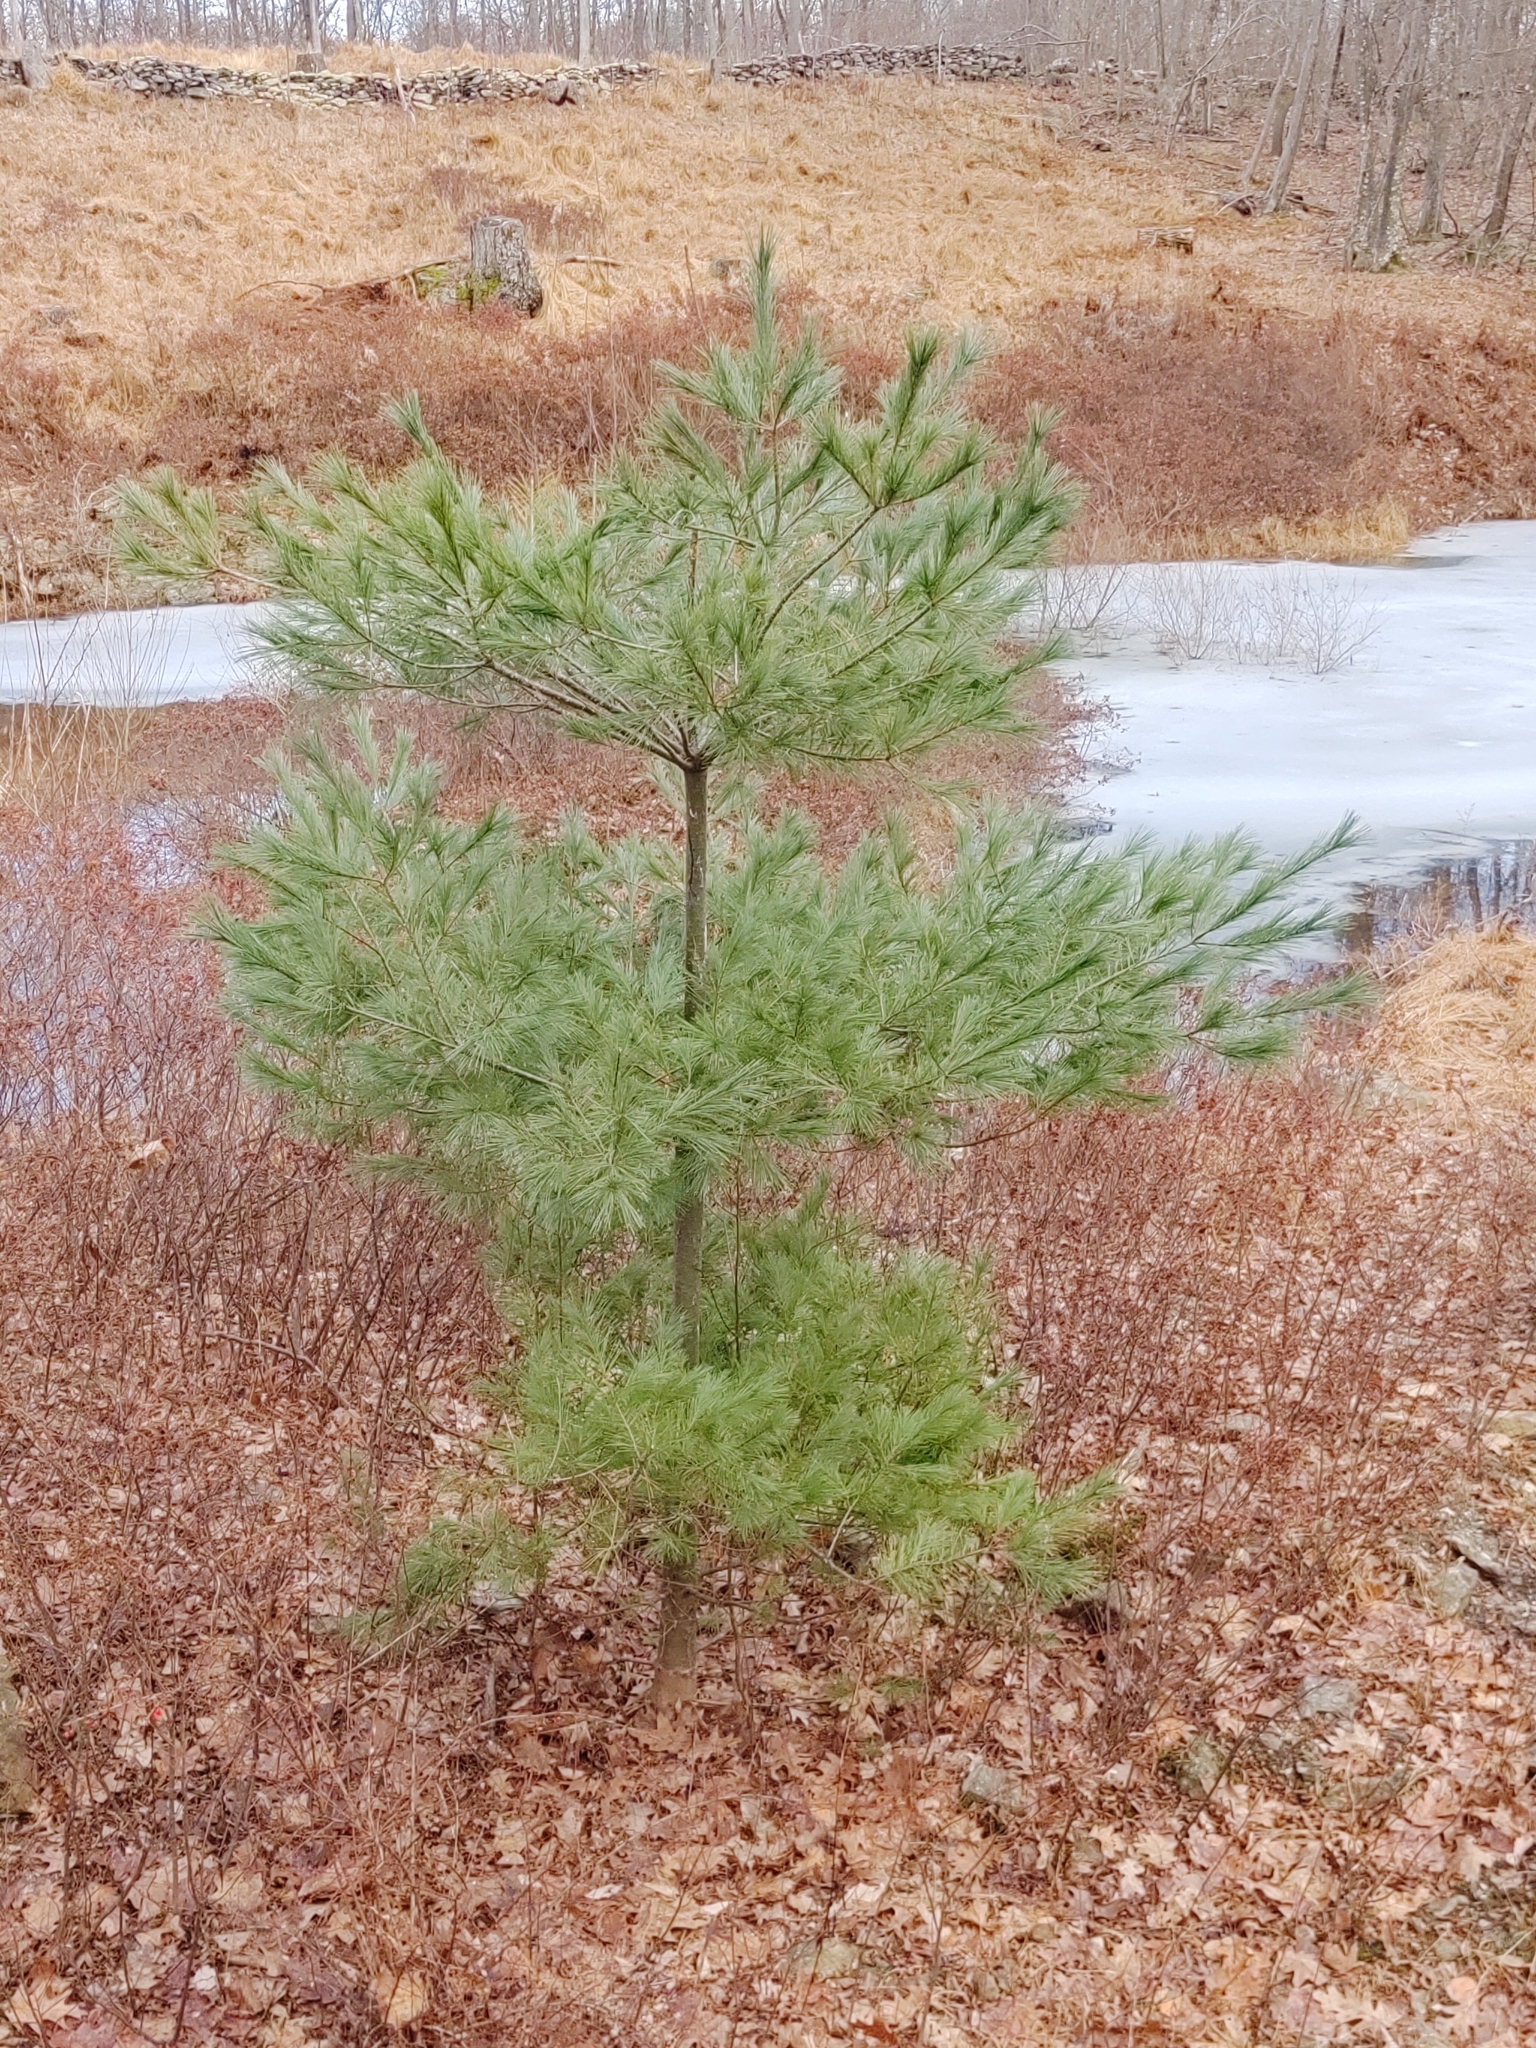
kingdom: Plantae
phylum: Tracheophyta
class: Pinopsida
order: Pinales
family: Pinaceae
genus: Pinus
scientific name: Pinus strobus
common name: Weymouth pine
